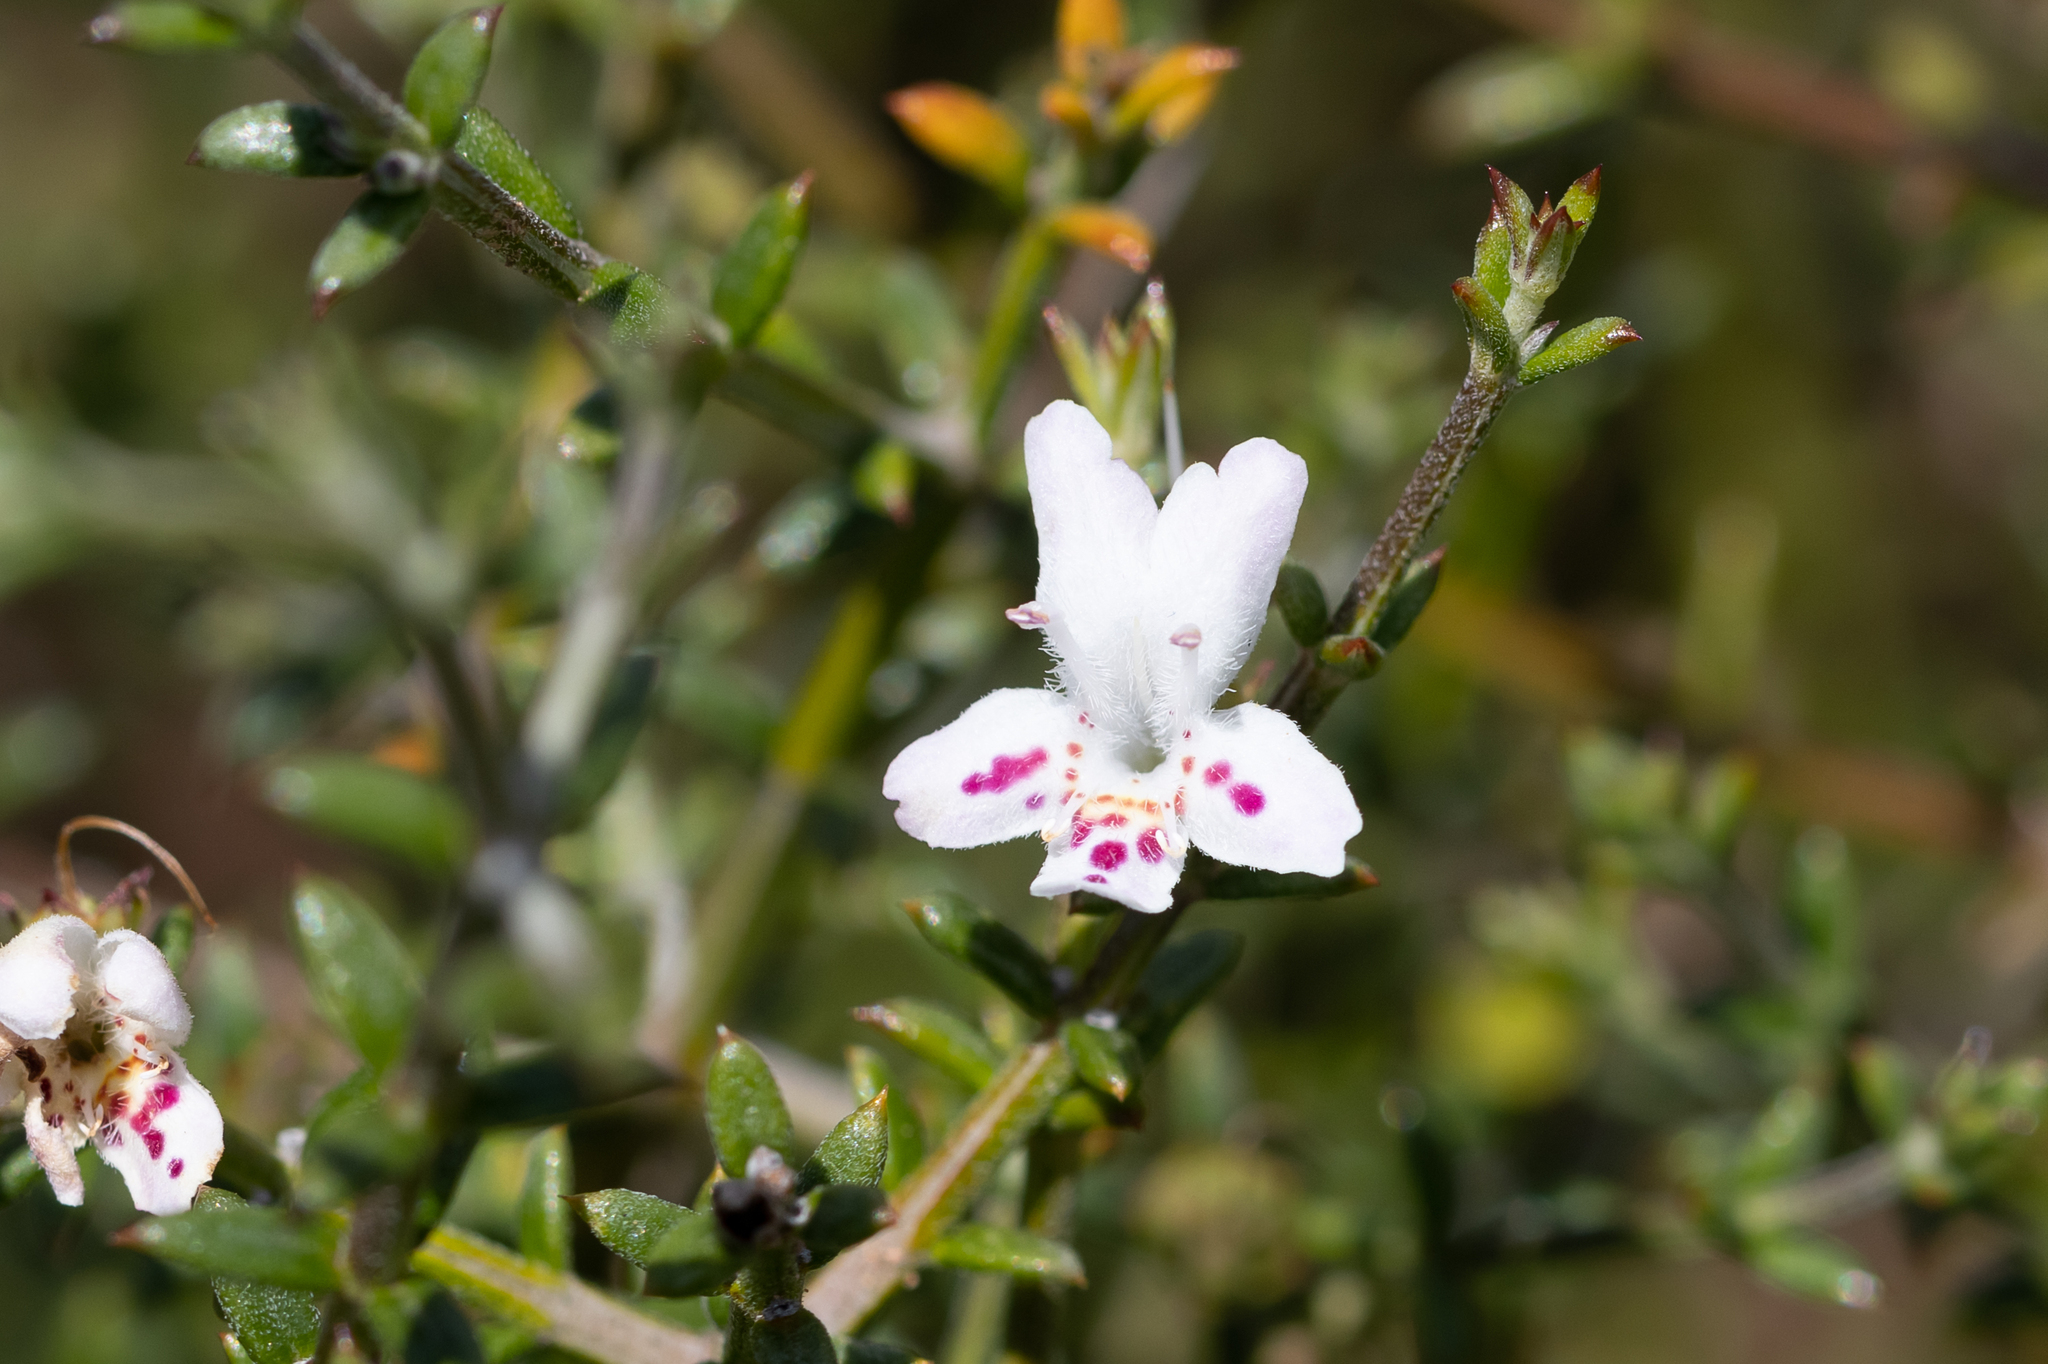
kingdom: Plantae
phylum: Tracheophyta
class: Magnoliopsida
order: Lamiales
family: Lamiaceae
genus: Westringia
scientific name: Westringia rigida
